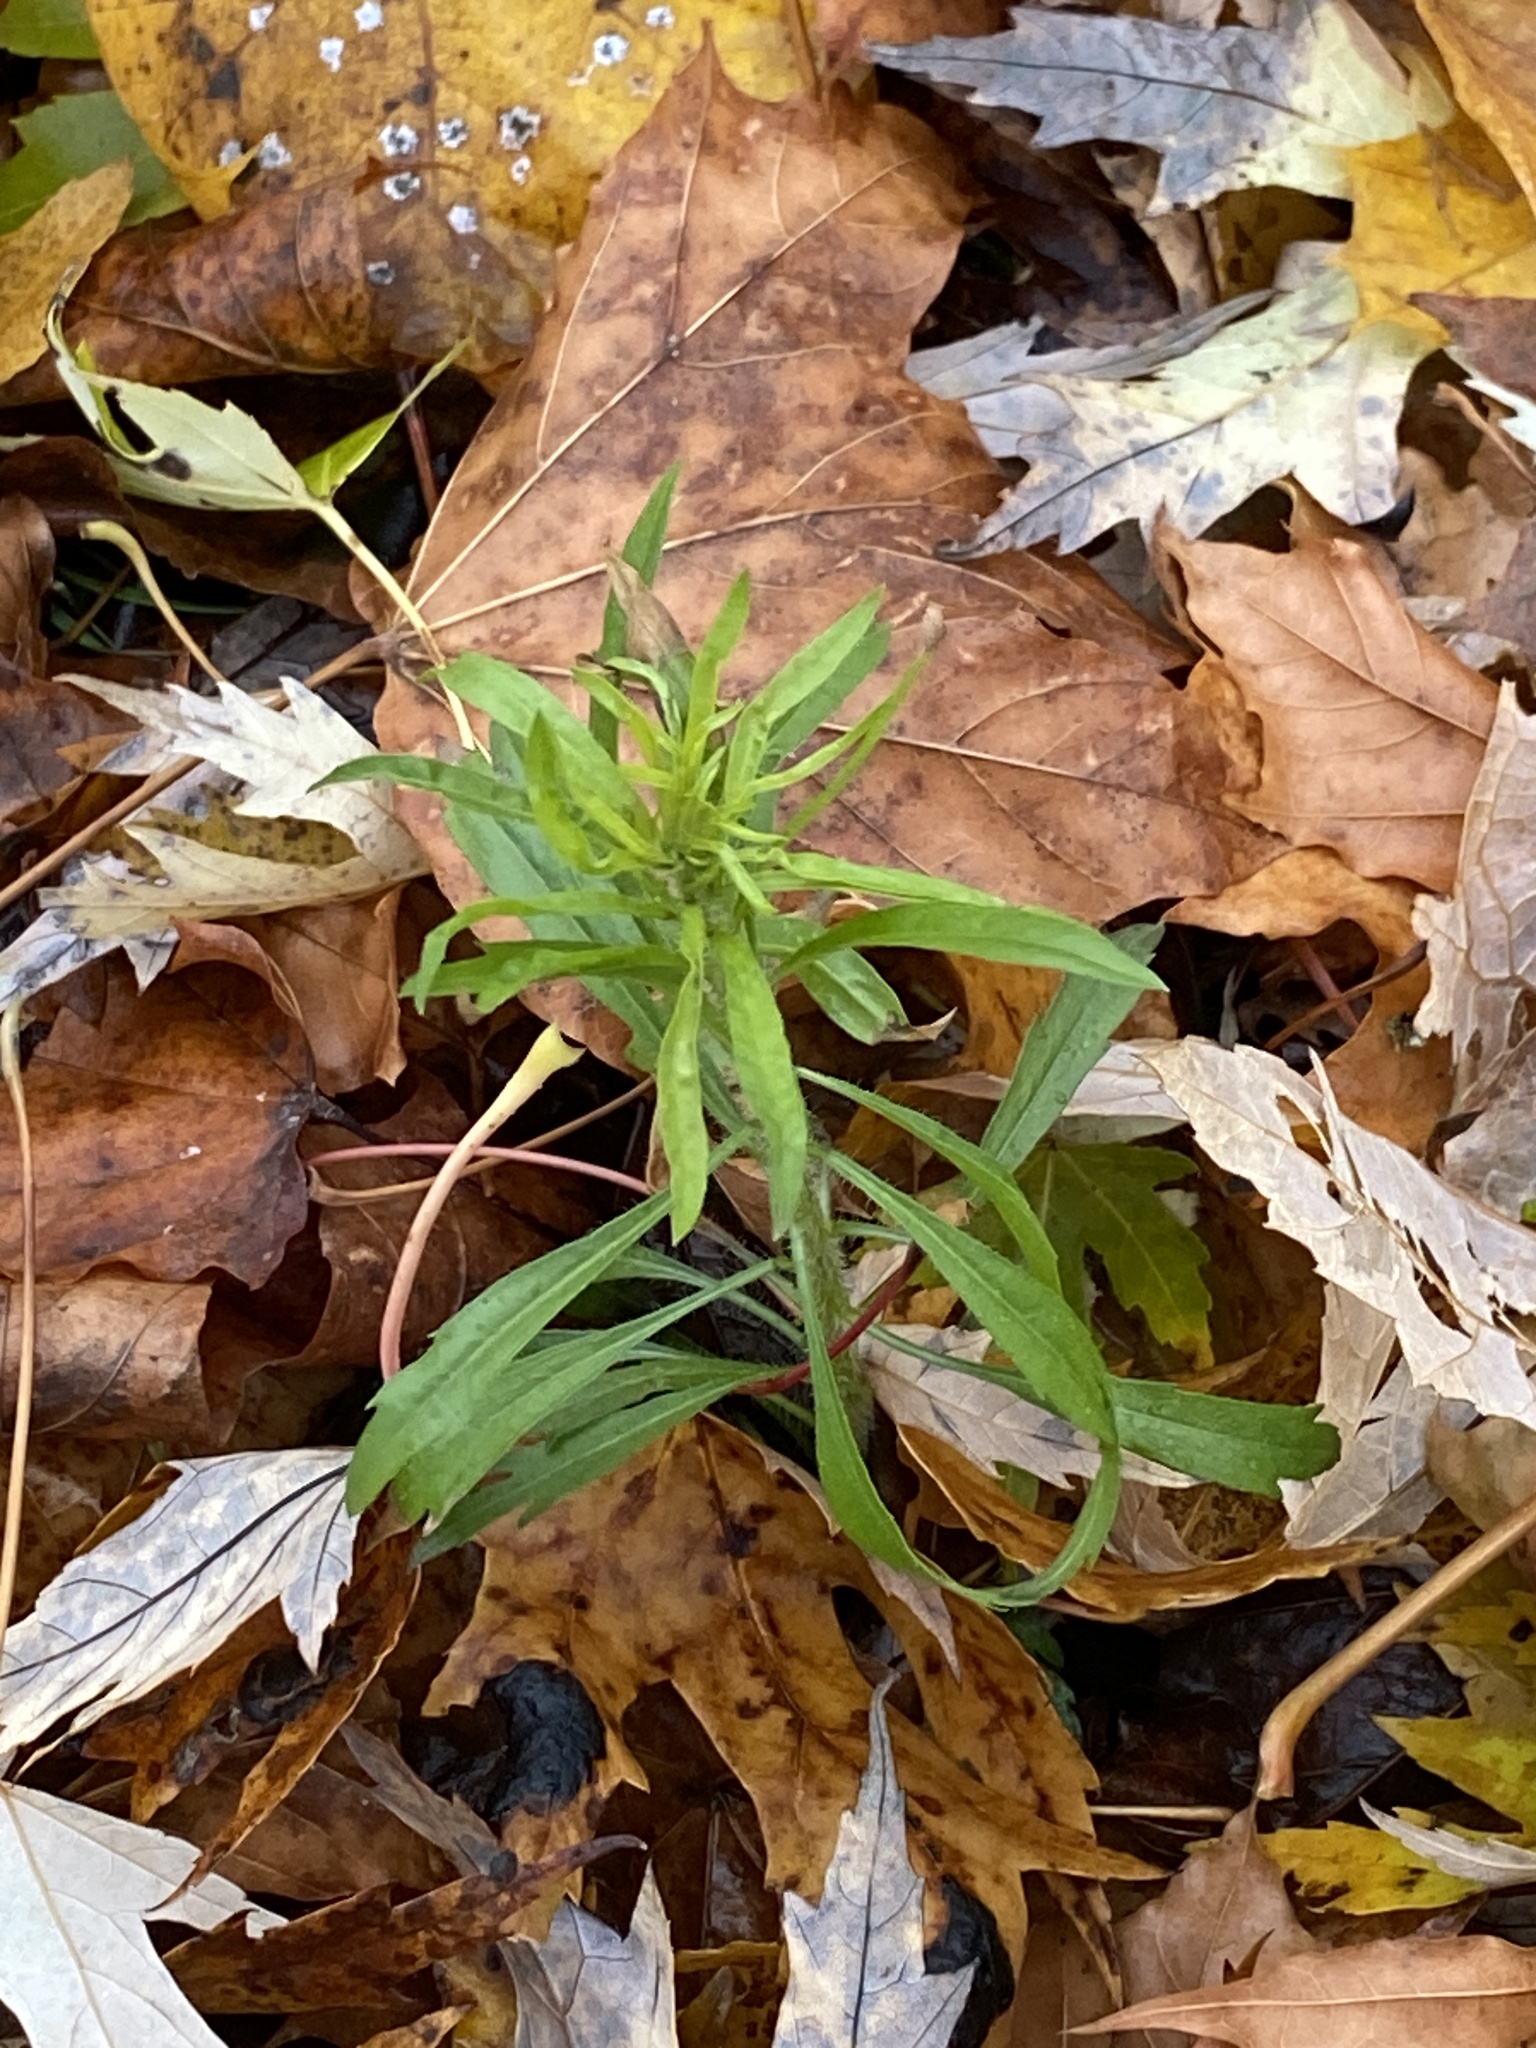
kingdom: Plantae
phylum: Tracheophyta
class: Magnoliopsida
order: Asterales
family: Asteraceae
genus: Erigeron
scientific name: Erigeron canadensis
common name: Canadian fleabane
